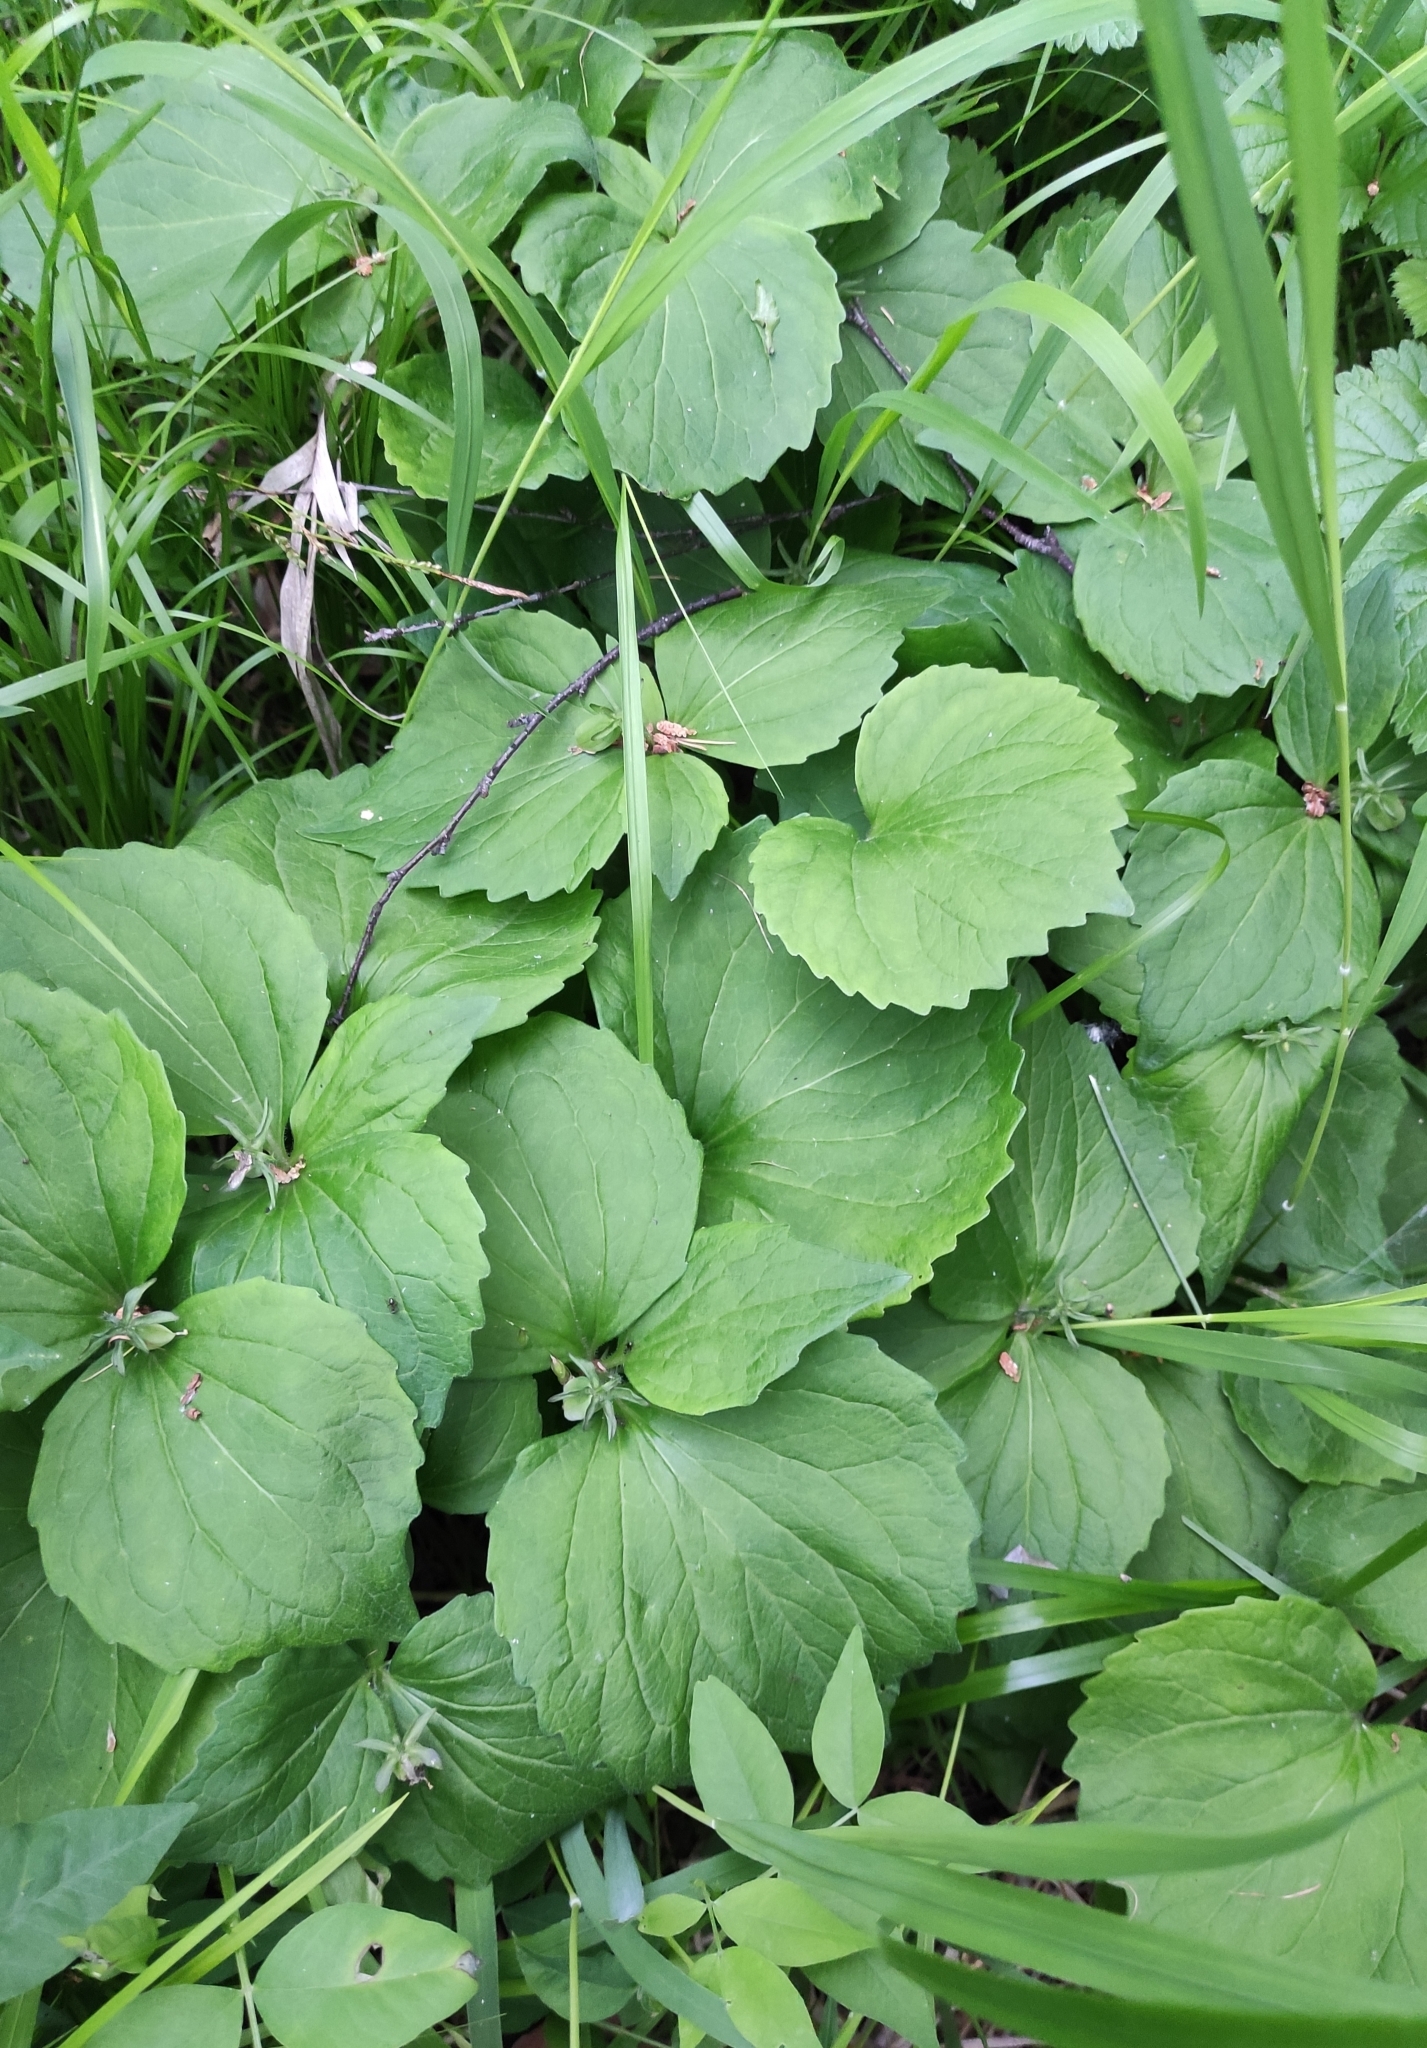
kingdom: Plantae
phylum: Tracheophyta
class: Magnoliopsida
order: Malpighiales
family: Violaceae
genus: Viola
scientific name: Viola uniflora
